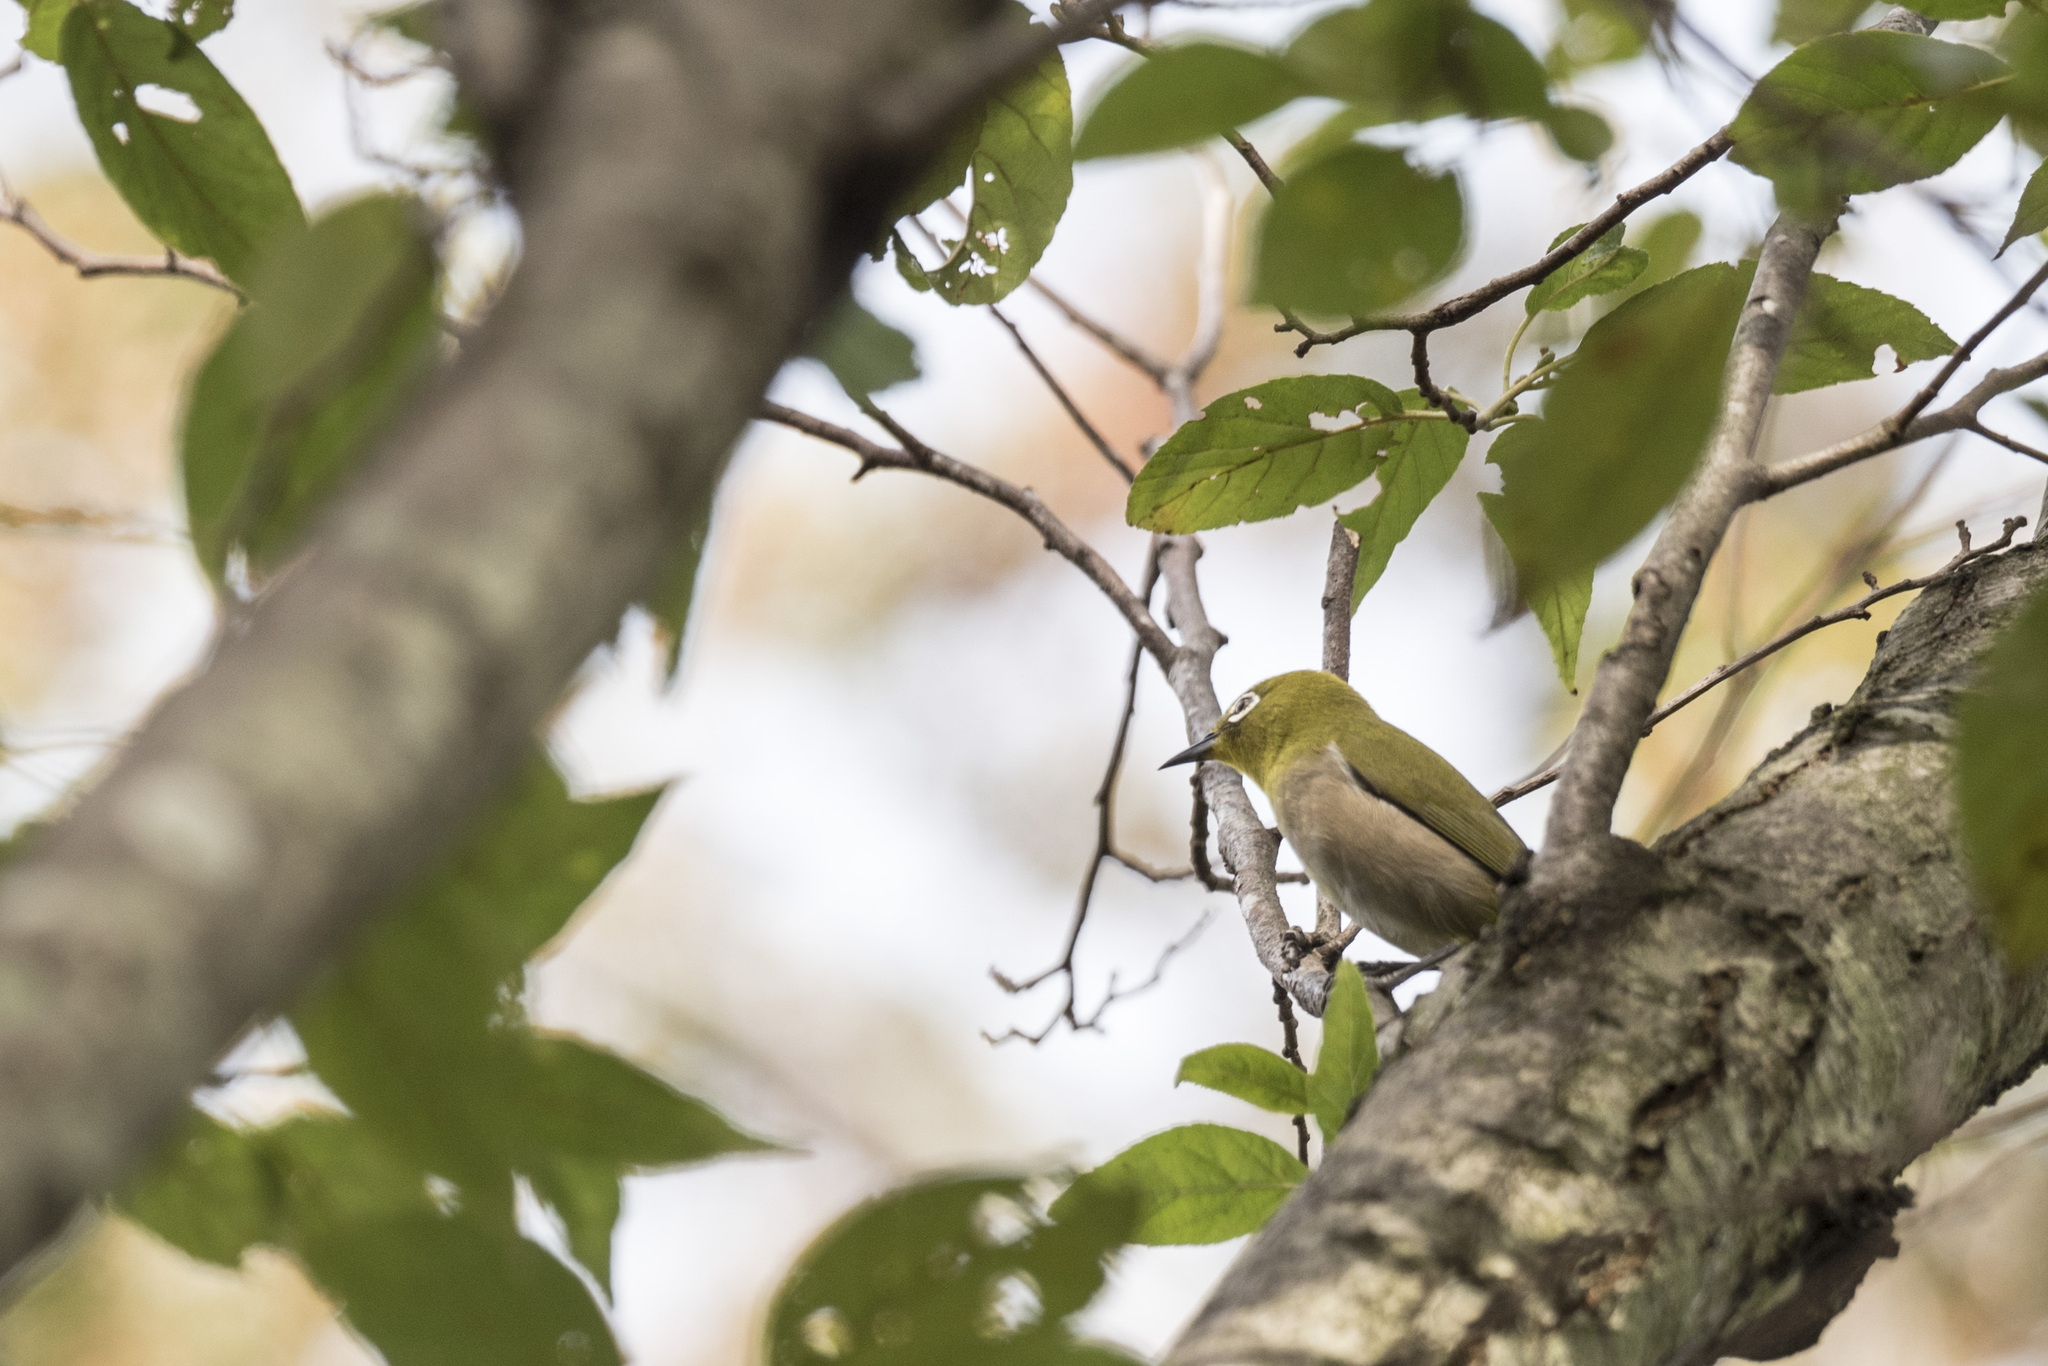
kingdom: Animalia
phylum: Chordata
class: Aves
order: Passeriformes
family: Zosteropidae
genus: Zosterops
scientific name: Zosterops japonicus
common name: Japanese white-eye
